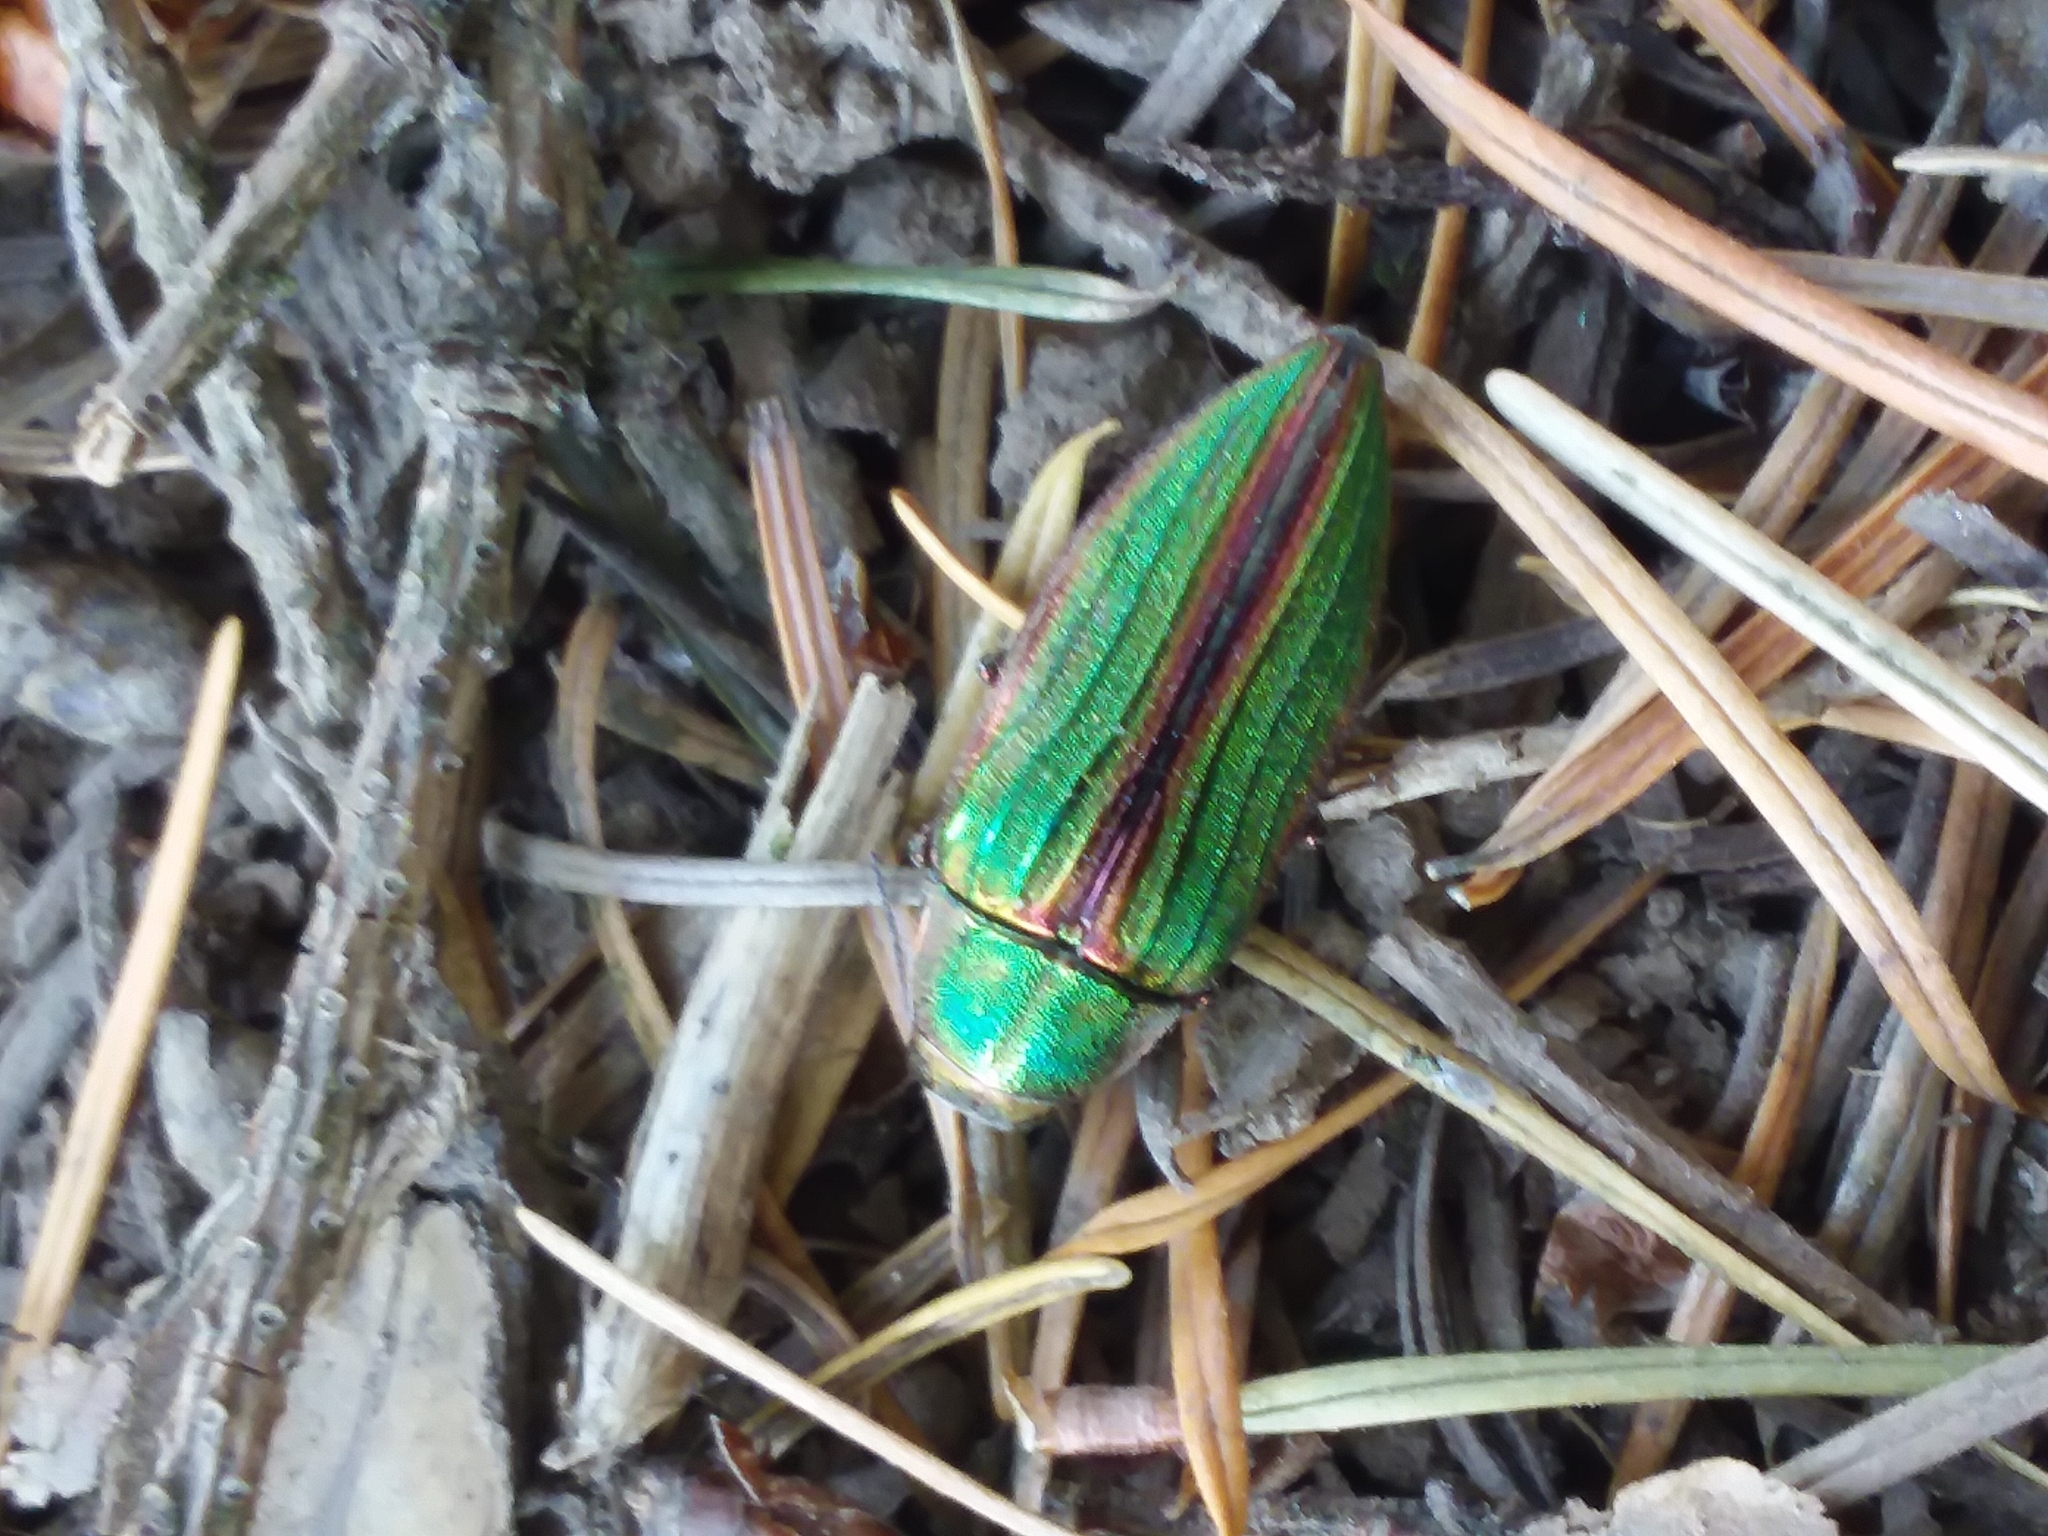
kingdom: Animalia
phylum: Arthropoda
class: Insecta
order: Coleoptera
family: Buprestidae
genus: Buprestis
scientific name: Buprestis aurulenta
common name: Golden buprestid
